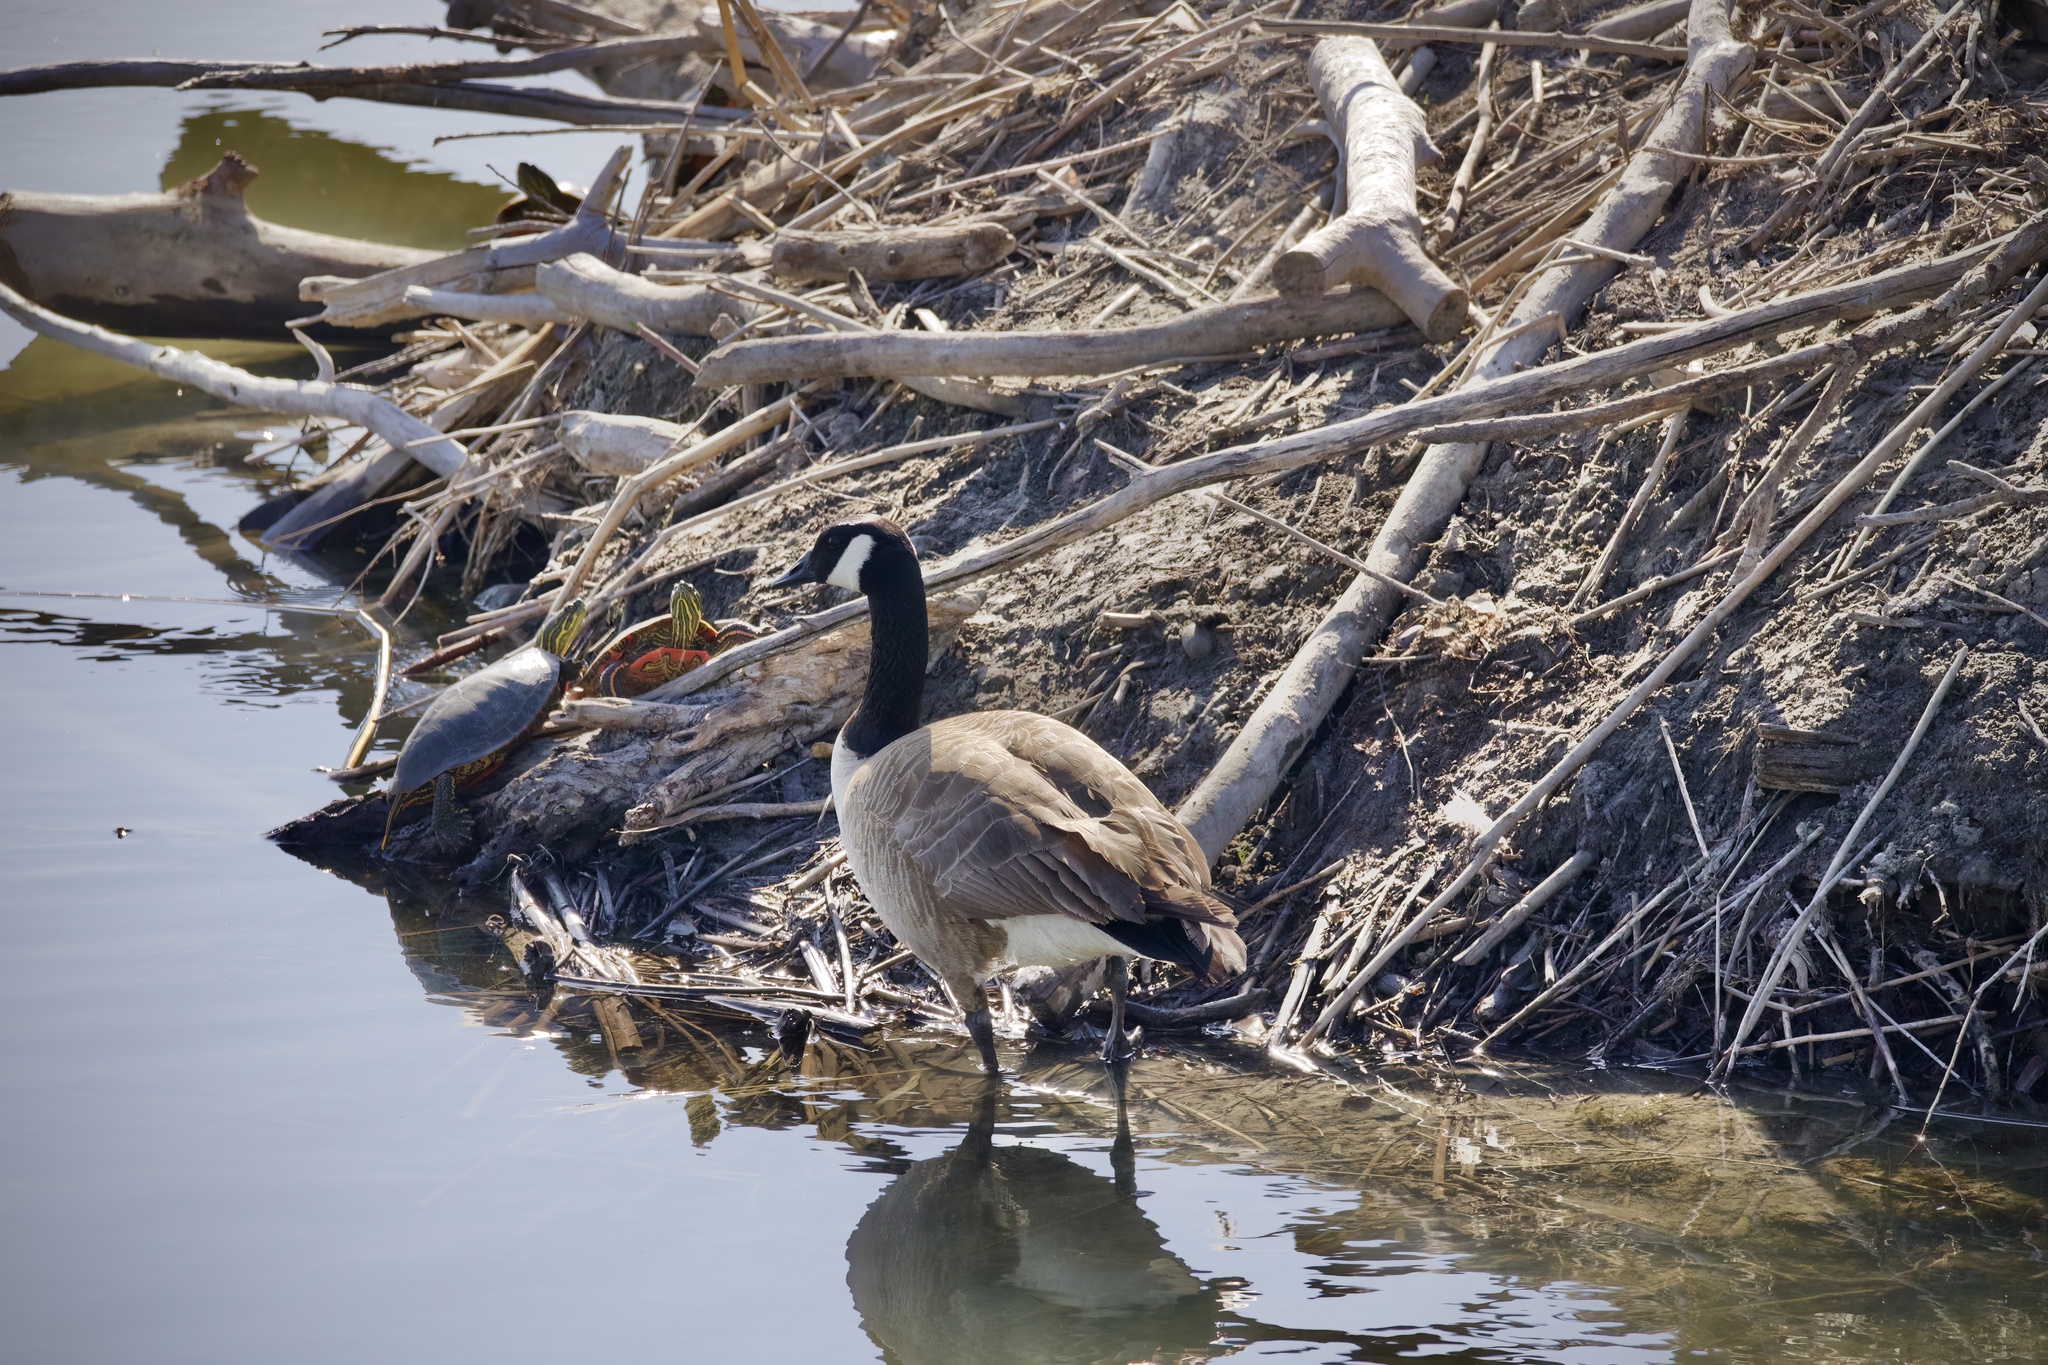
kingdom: Animalia
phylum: Chordata
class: Testudines
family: Emydidae
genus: Chrysemys
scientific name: Chrysemys picta
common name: Painted turtle
